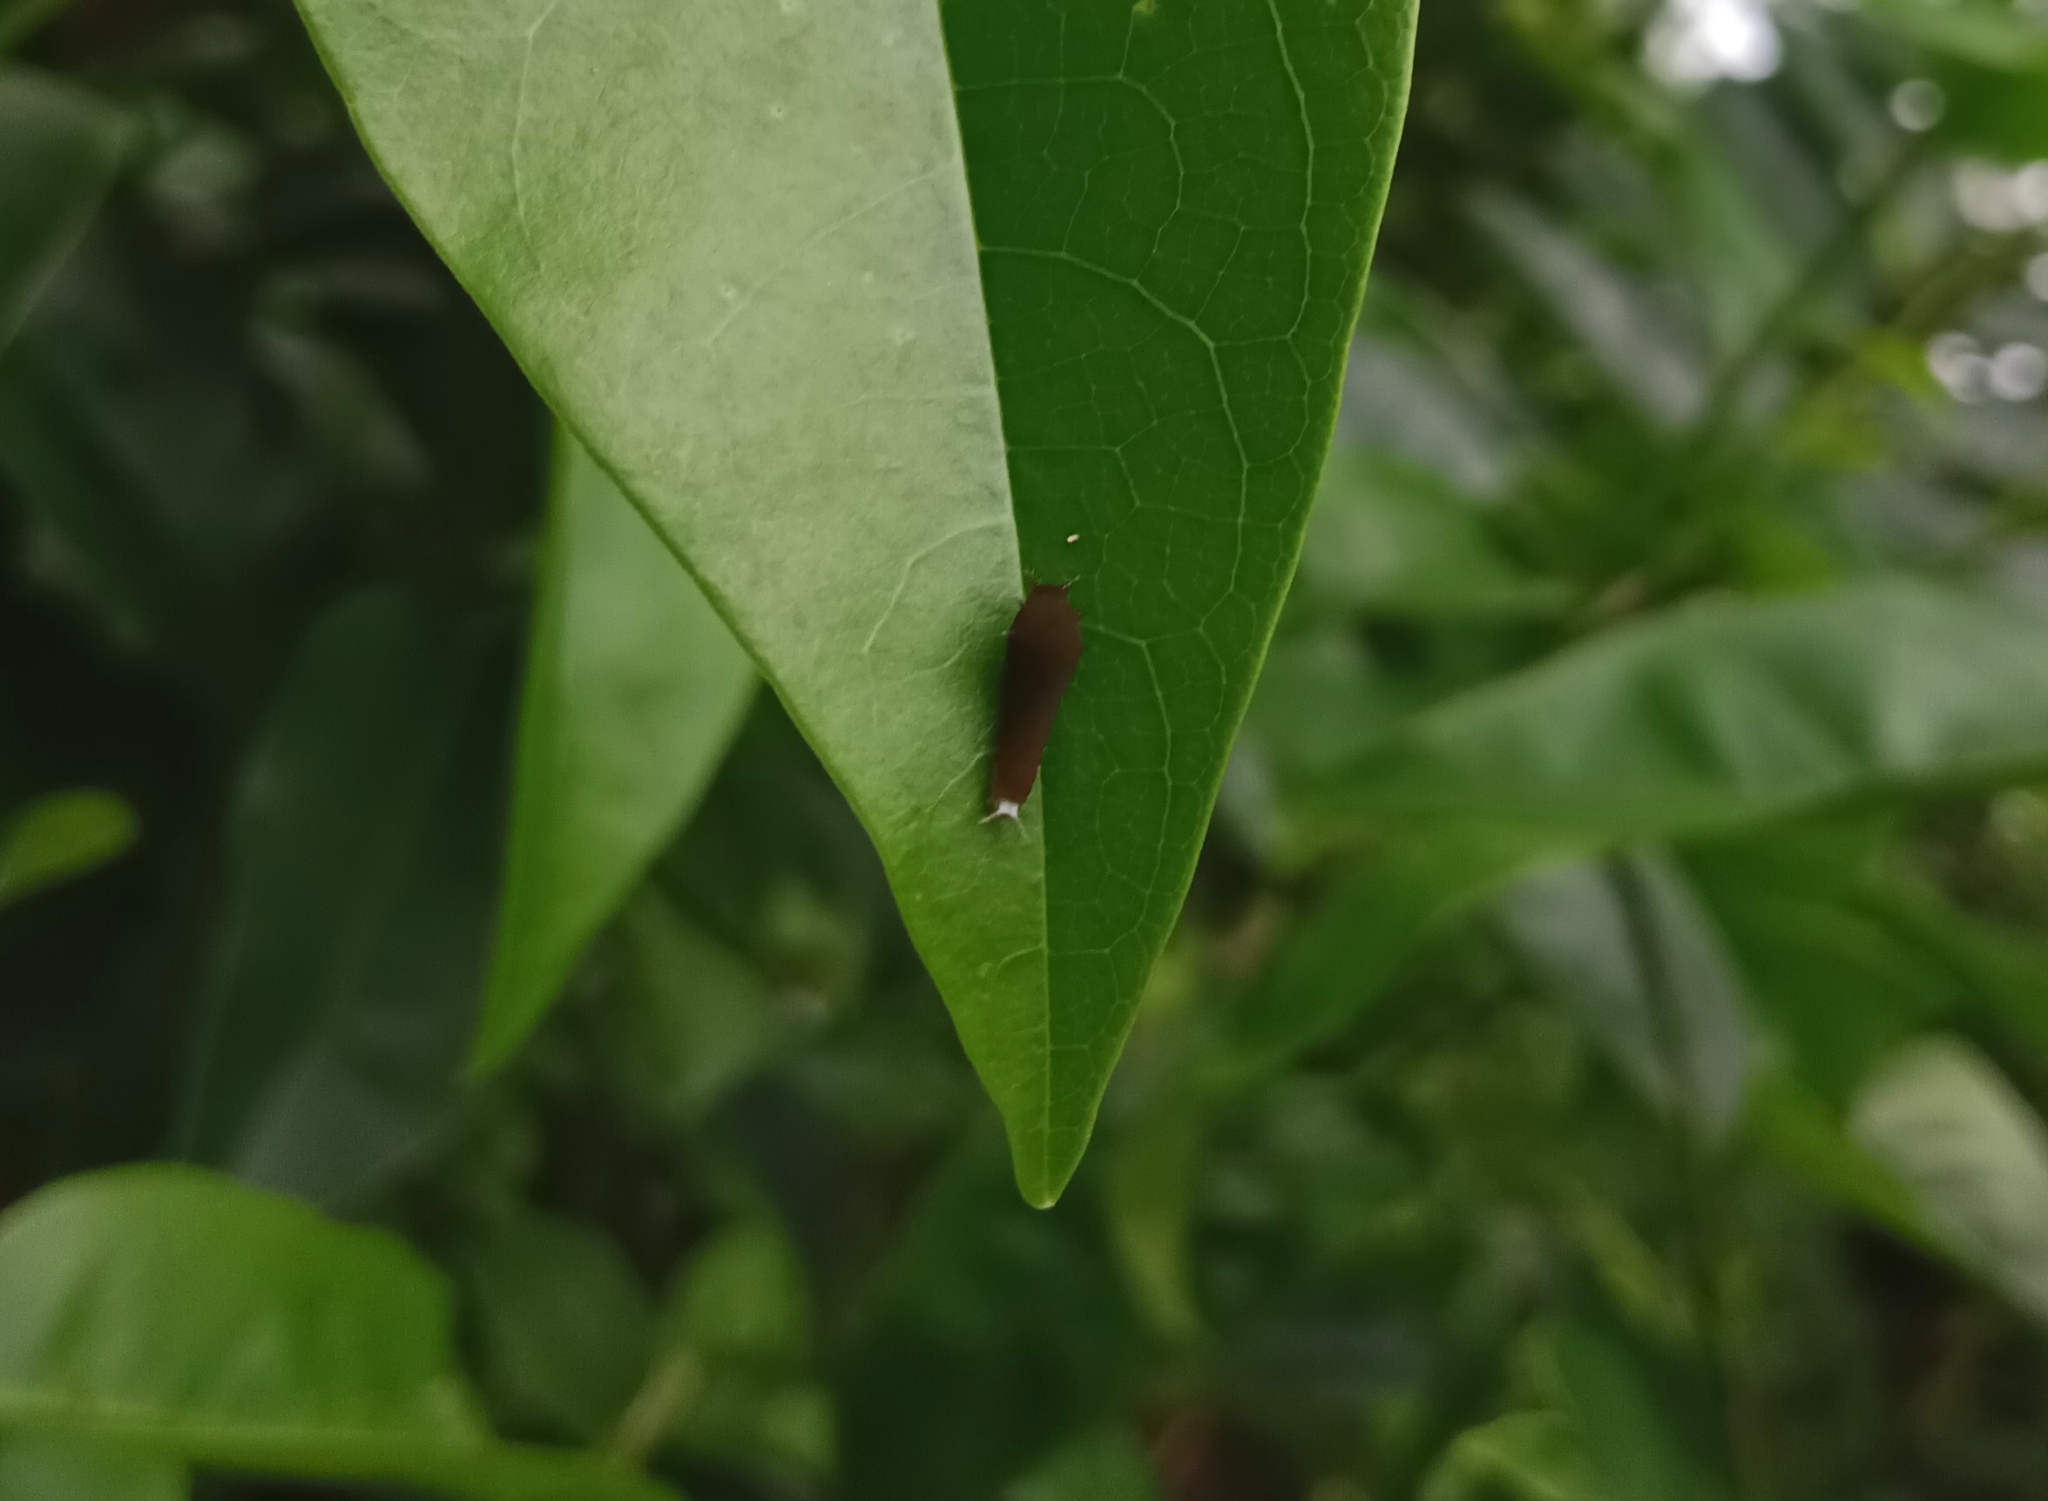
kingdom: Animalia
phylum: Arthropoda
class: Insecta
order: Lepidoptera
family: Papilionidae
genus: Graphium
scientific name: Graphium doson
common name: Common jay
